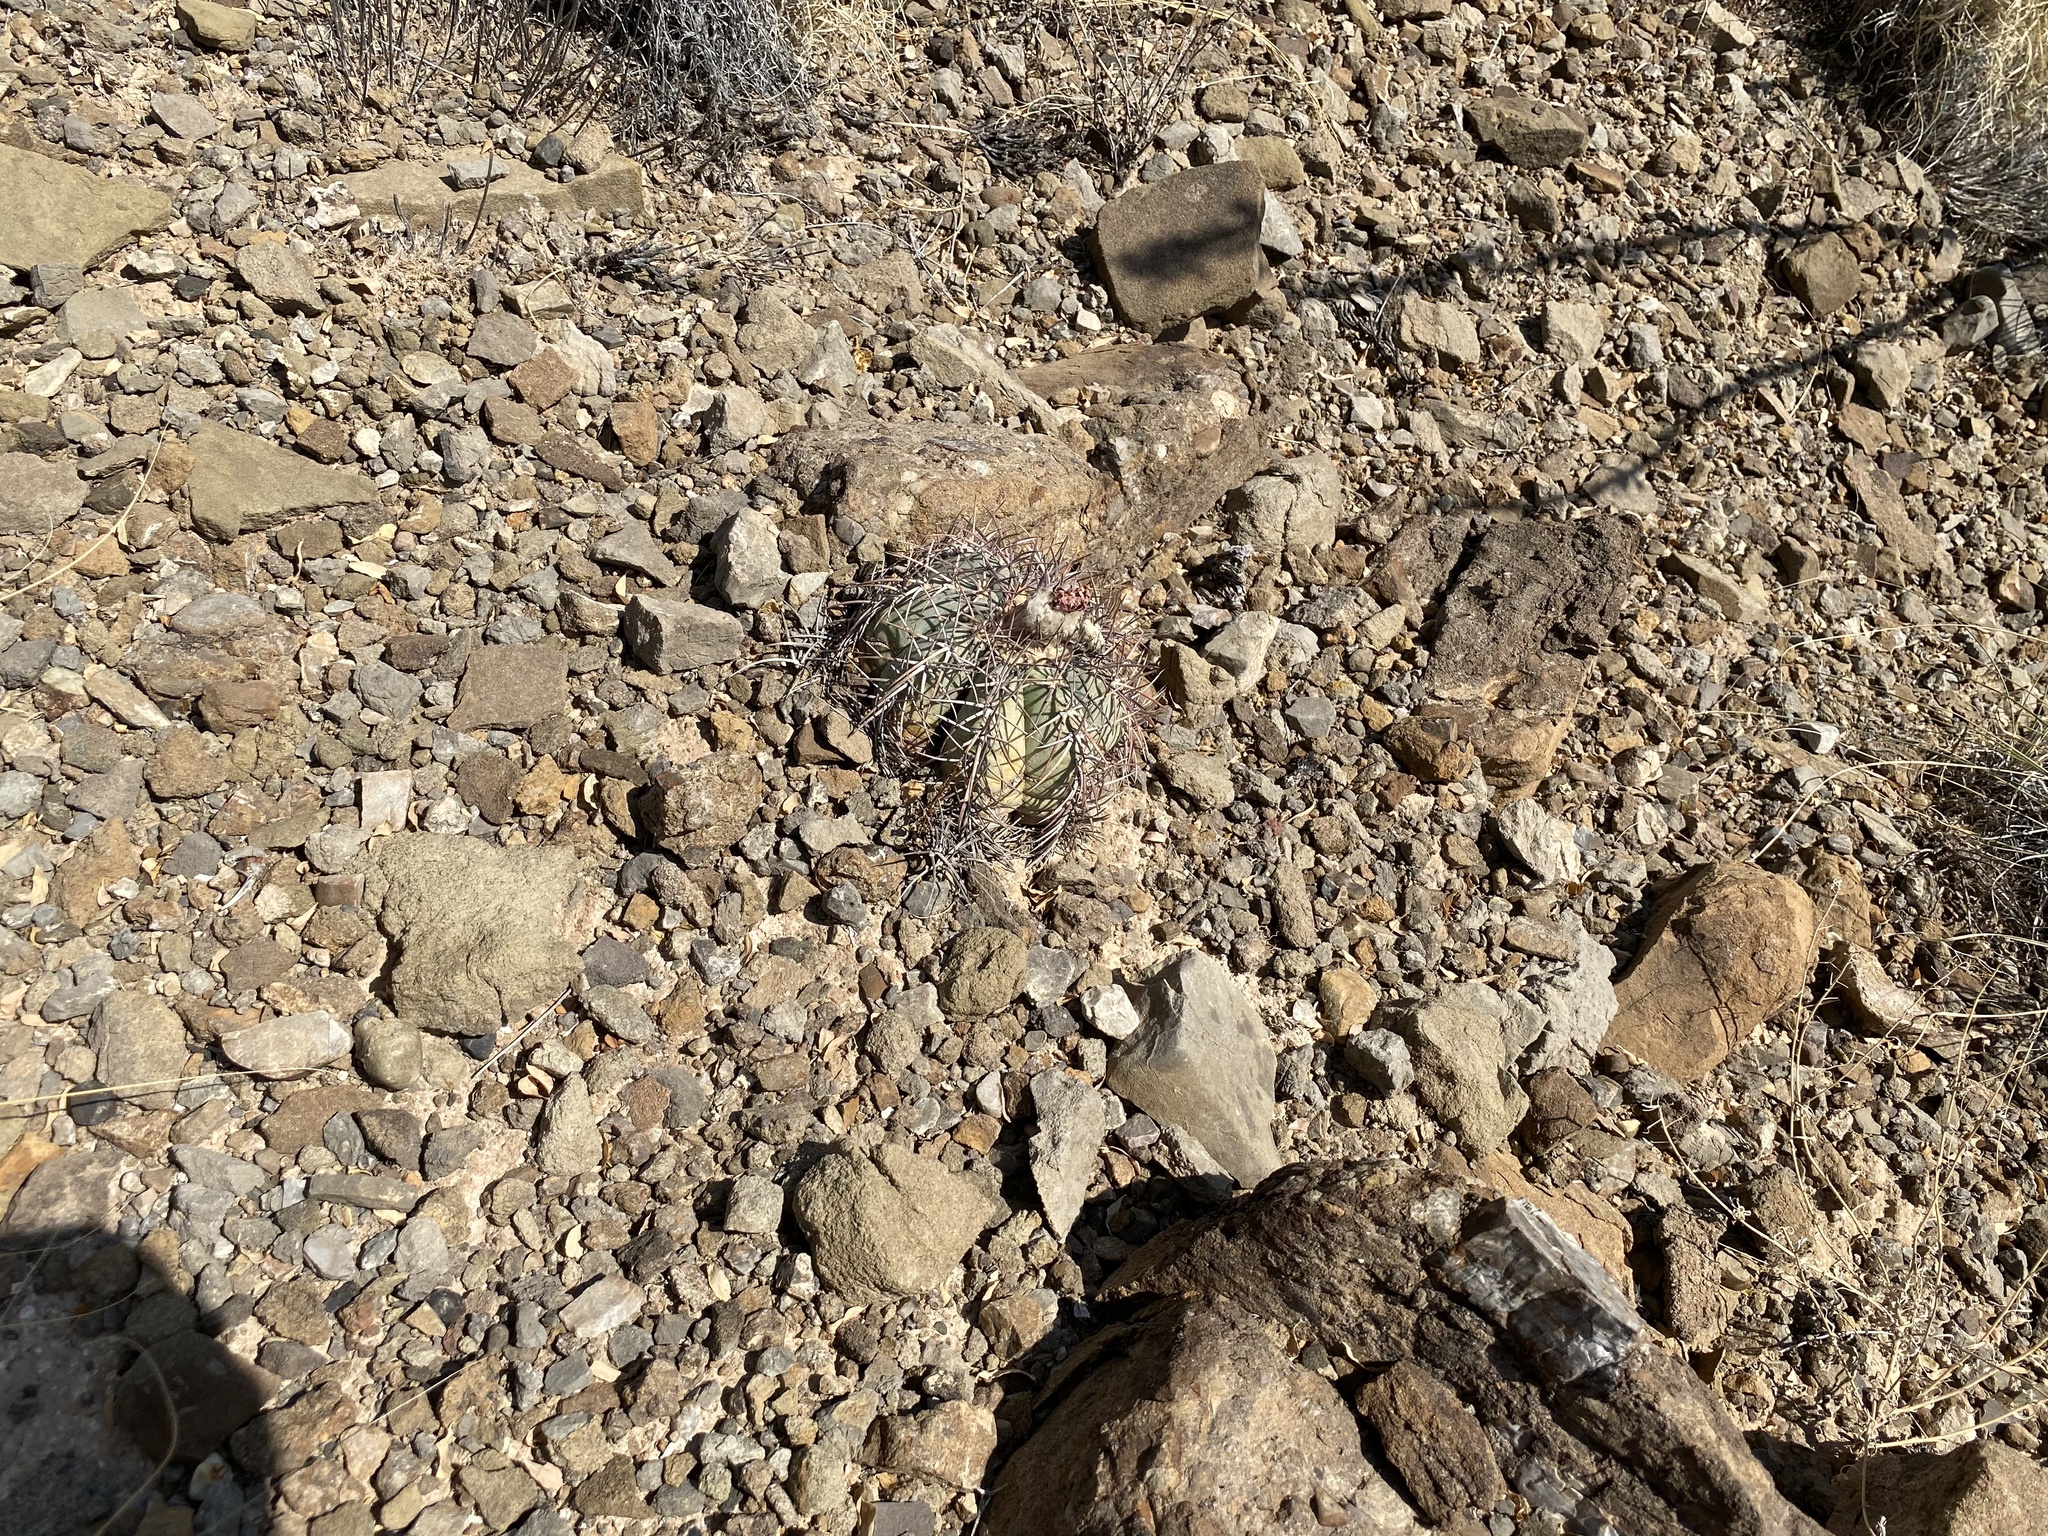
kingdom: Plantae
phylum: Tracheophyta
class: Magnoliopsida
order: Caryophyllales
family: Cactaceae
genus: Echinocactus
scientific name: Echinocactus horizonthalonius
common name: Devilshead
